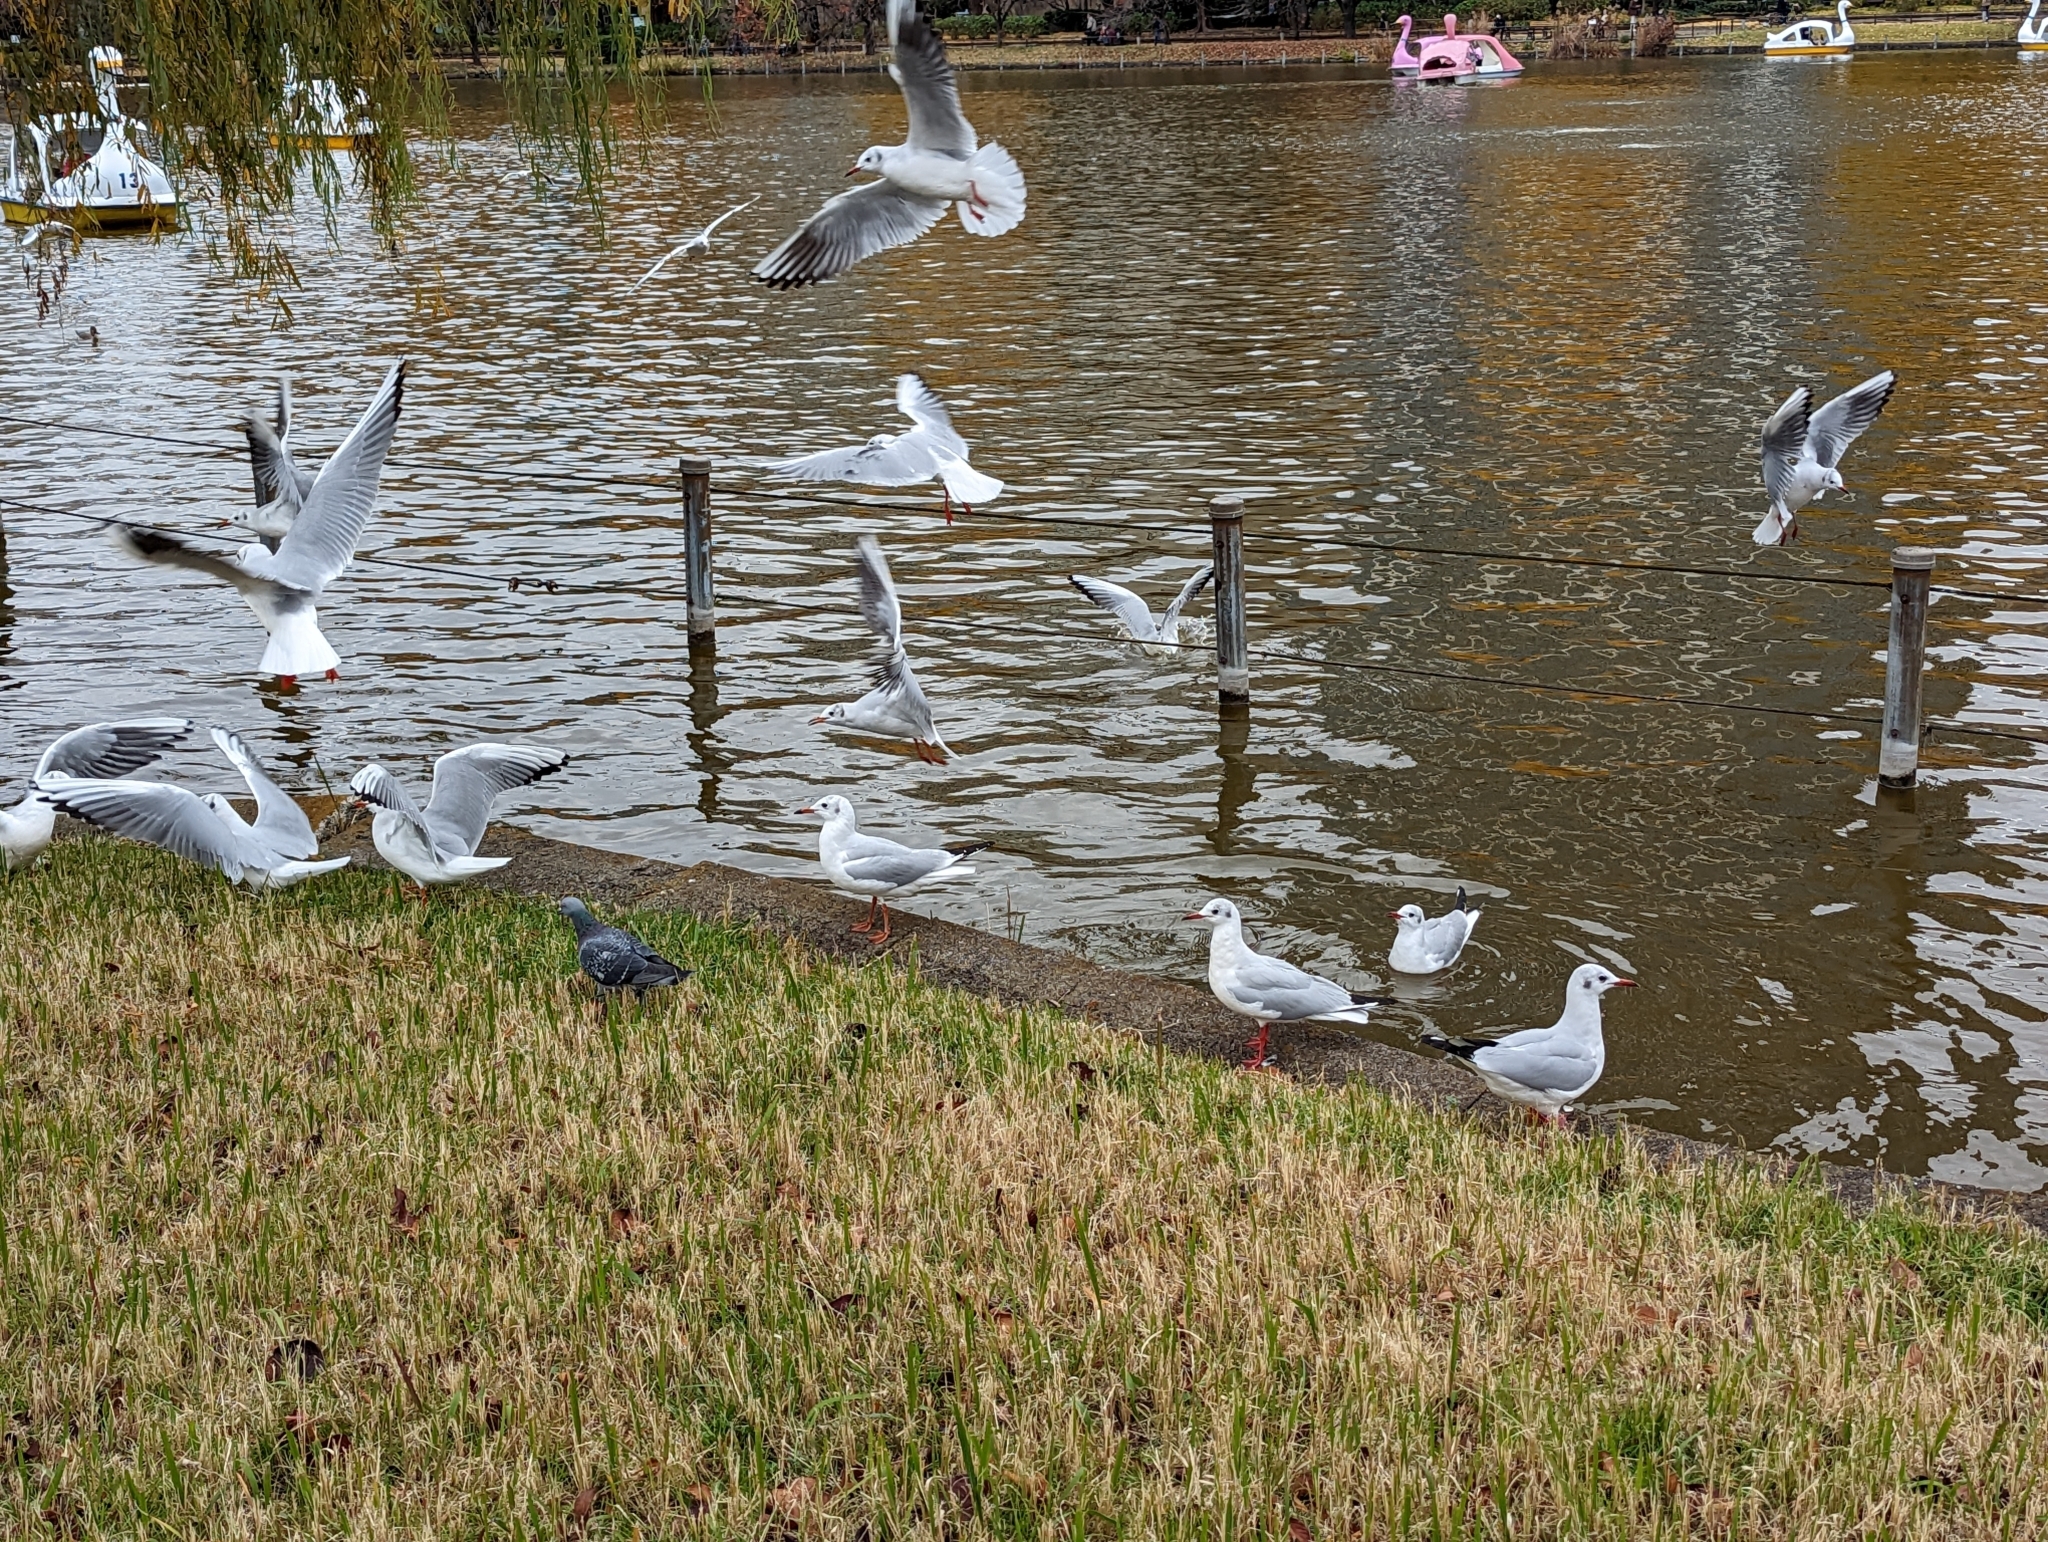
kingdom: Animalia
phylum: Chordata
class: Aves
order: Charadriiformes
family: Laridae
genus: Chroicocephalus
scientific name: Chroicocephalus ridibundus
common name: Black-headed gull
